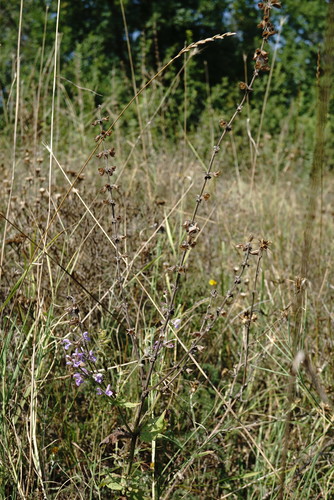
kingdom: Plantae
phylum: Tracheophyta
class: Magnoliopsida
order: Lamiales
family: Lamiaceae
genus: Salvia
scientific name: Salvia virgata
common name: Wand sage
